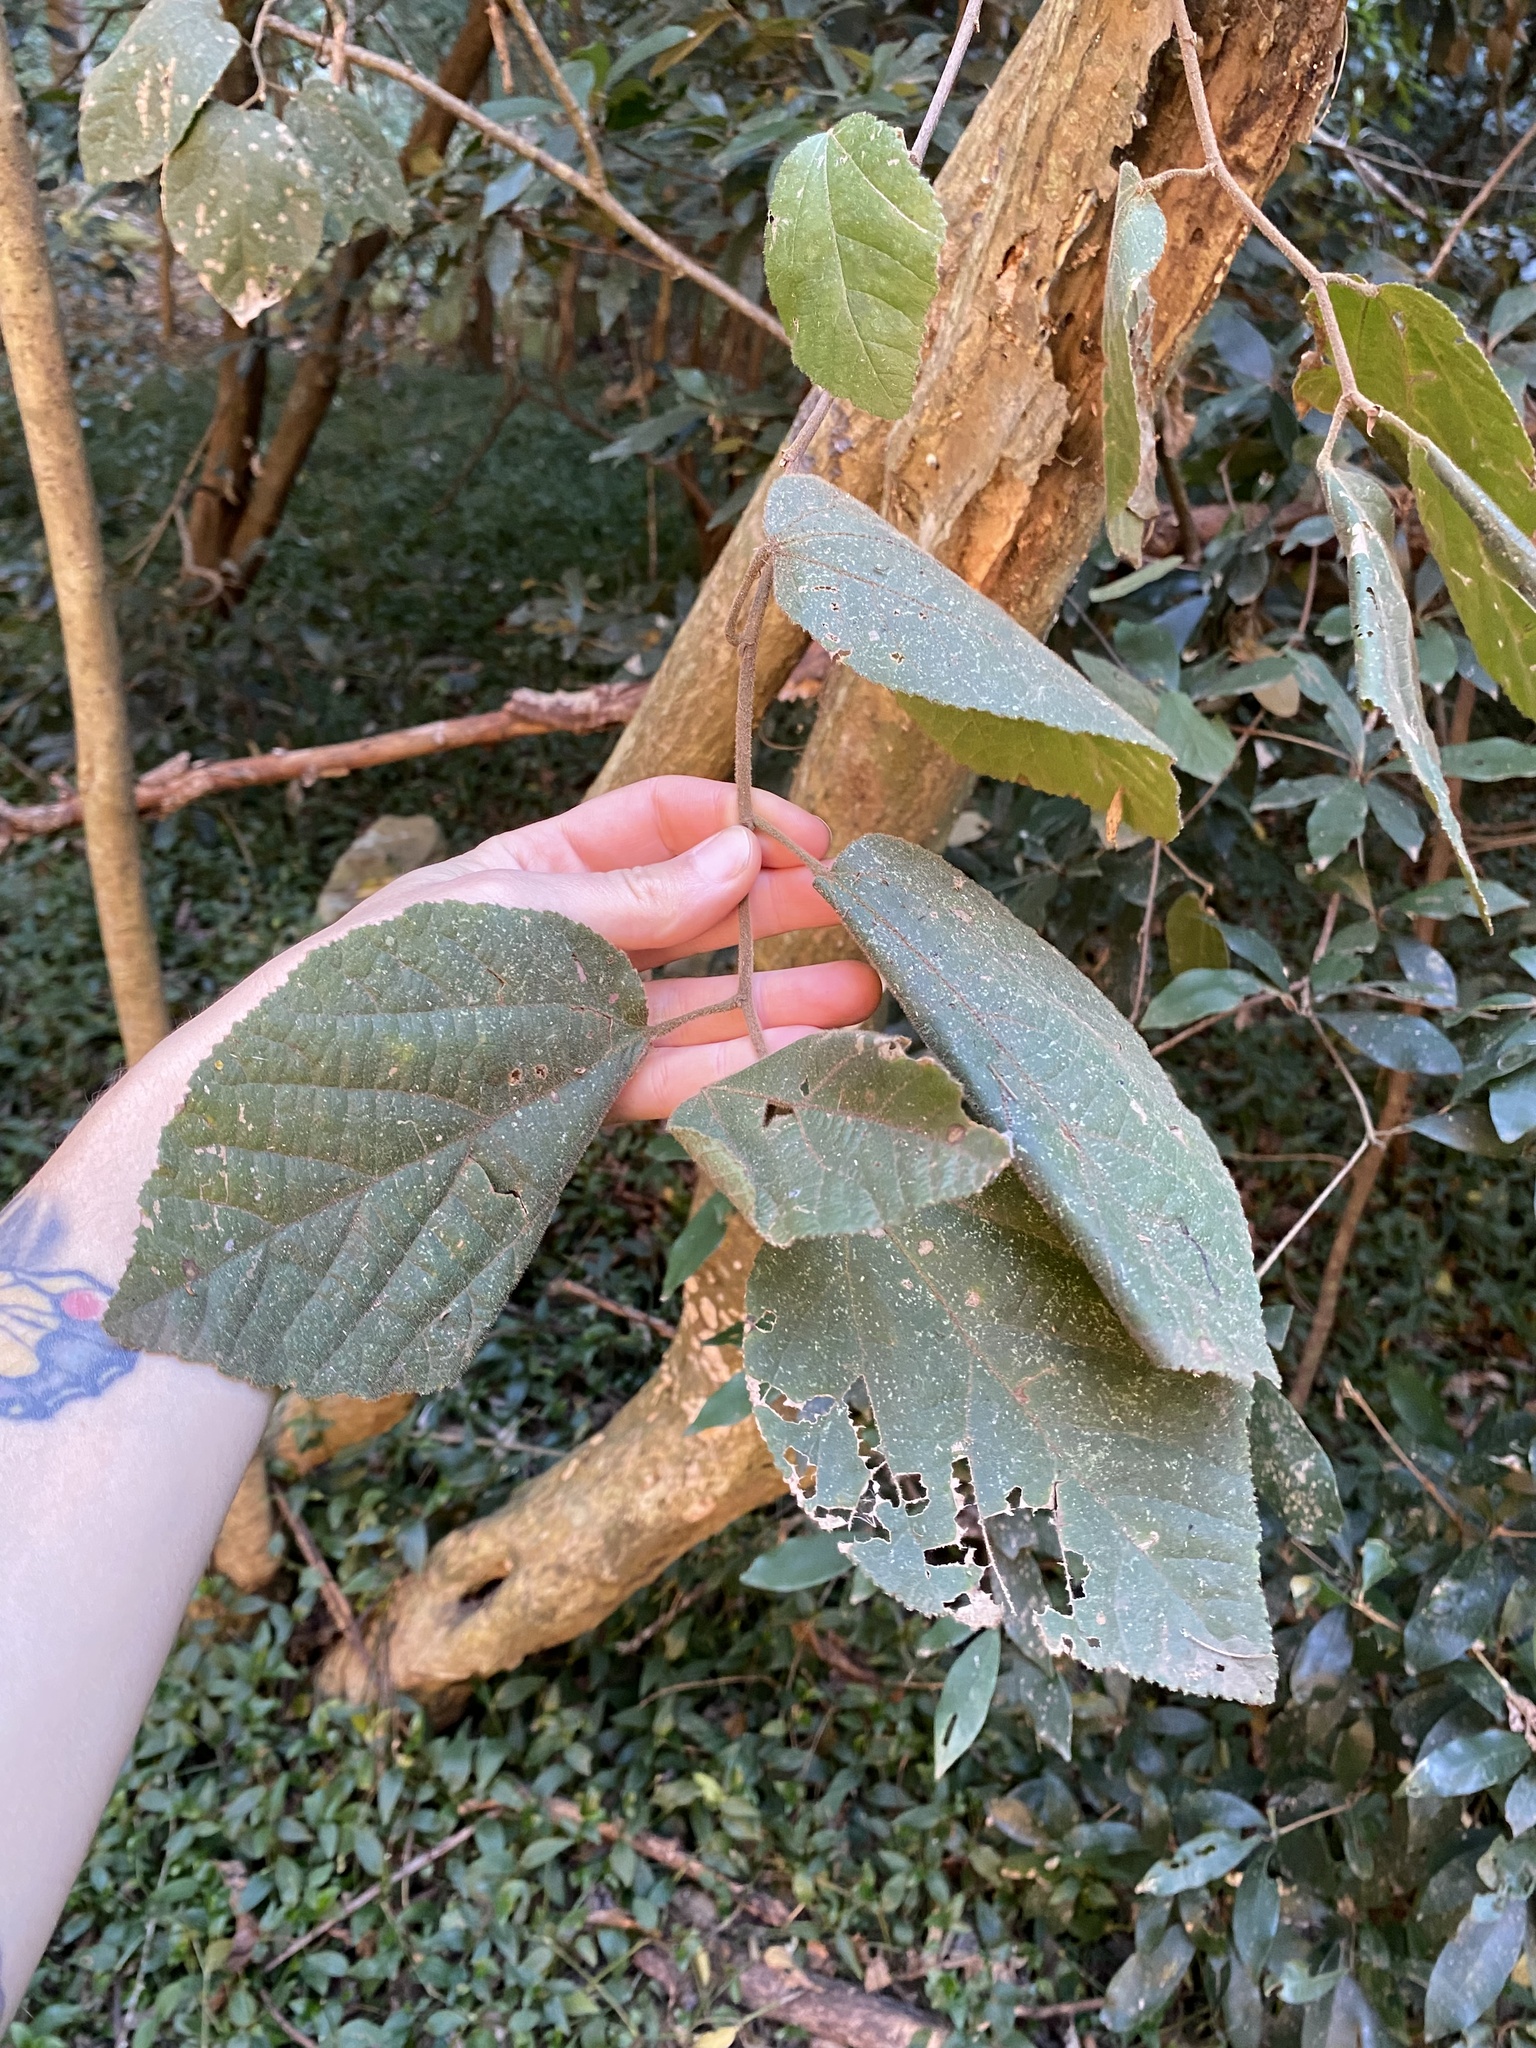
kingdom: Plantae
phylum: Tracheophyta
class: Magnoliopsida
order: Malpighiales
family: Salicaceae
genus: Trimeria
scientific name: Trimeria grandifolia
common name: Wild mulberry
